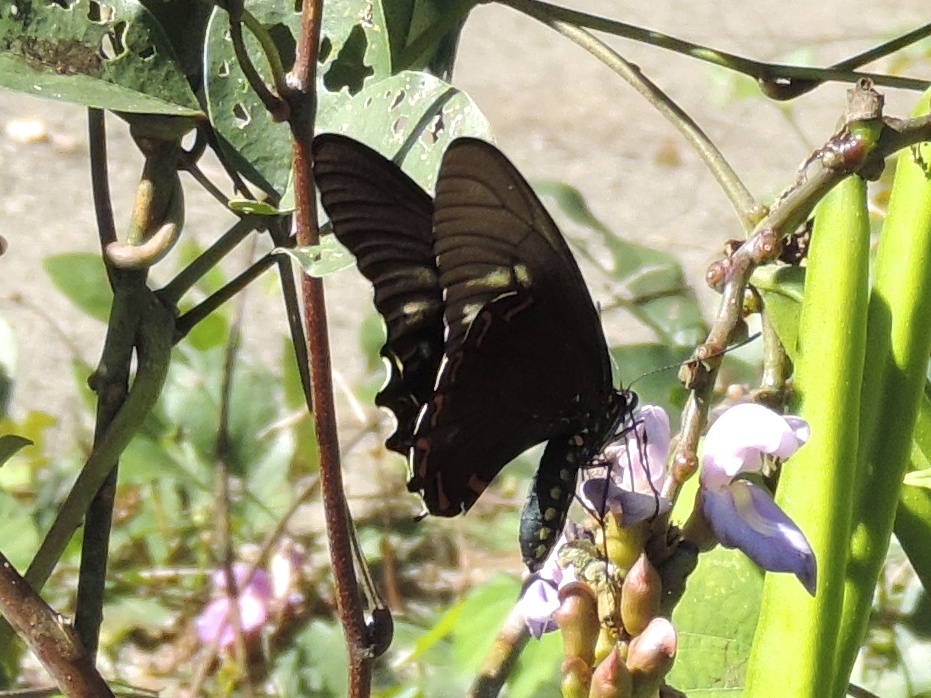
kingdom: Animalia
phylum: Arthropoda
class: Insecta
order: Lepidoptera
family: Papilionidae
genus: Battus
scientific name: Battus laodamas
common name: Green-patch swallowtail
